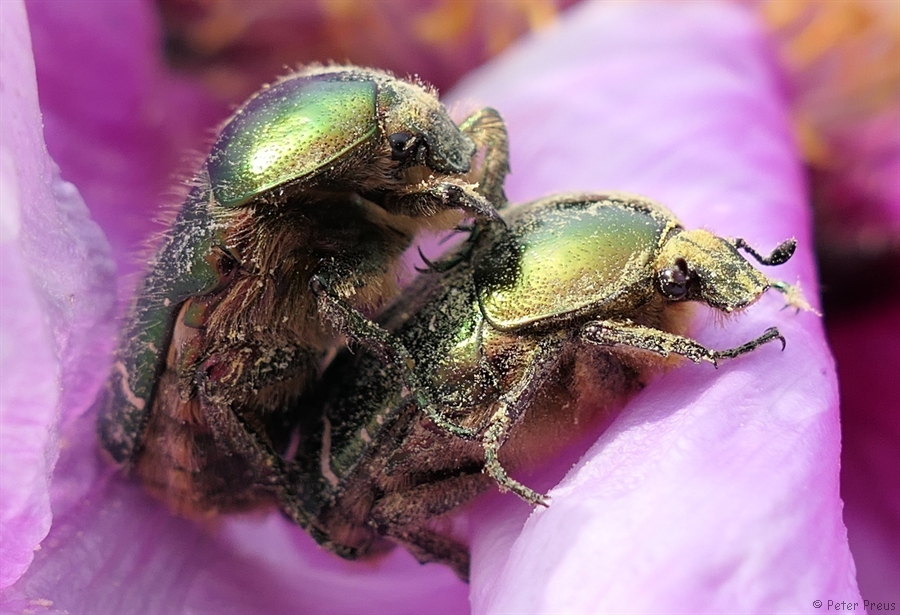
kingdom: Animalia
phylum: Arthropoda
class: Insecta
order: Coleoptera
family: Scarabaeidae
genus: Cetonia
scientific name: Cetonia aurata
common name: Rose chafer
